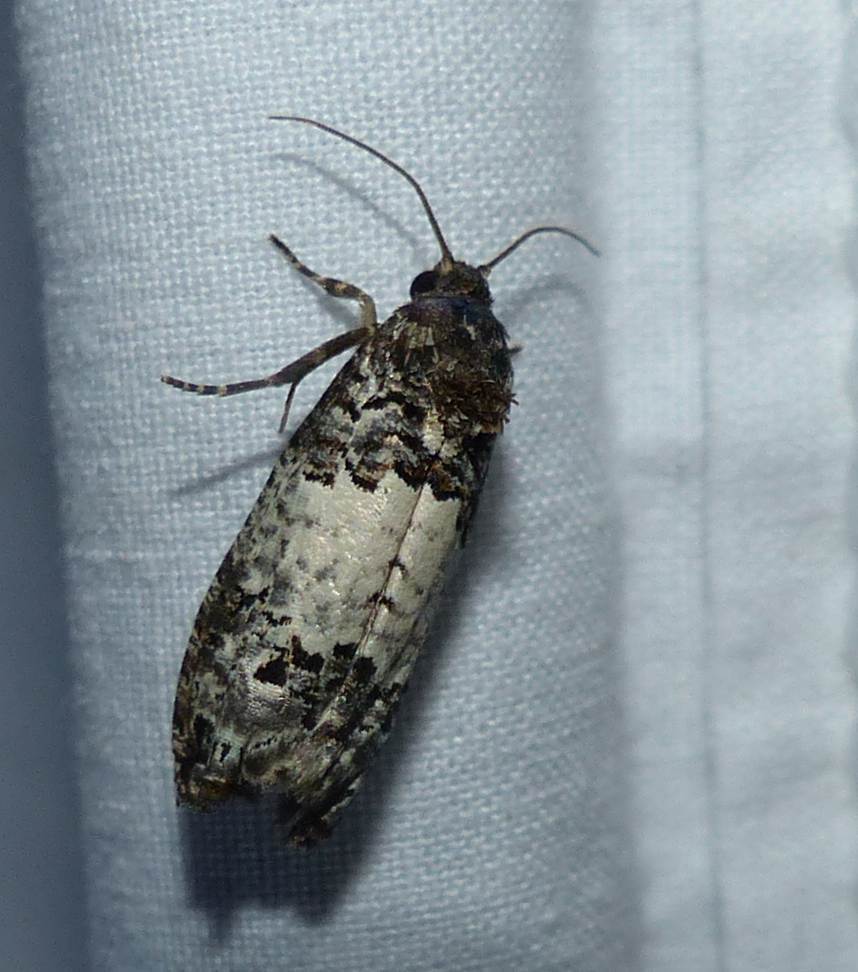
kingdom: Animalia
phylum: Arthropoda
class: Insecta
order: Lepidoptera
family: Tortricidae
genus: Epiblema
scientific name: Epiblema carolinana
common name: Gray-blotched epiblema moth
